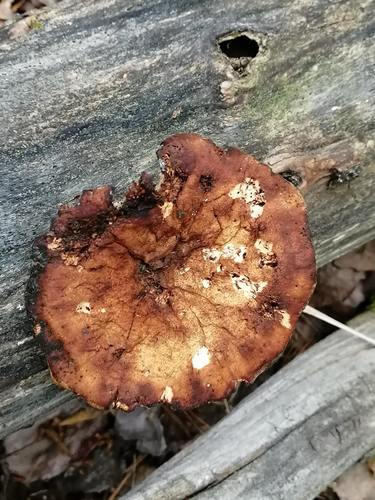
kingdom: Fungi
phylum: Basidiomycota
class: Agaricomycetes
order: Gloeophyllales
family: Gloeophyllaceae
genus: Neolentinus
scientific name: Neolentinus cyathiformis
